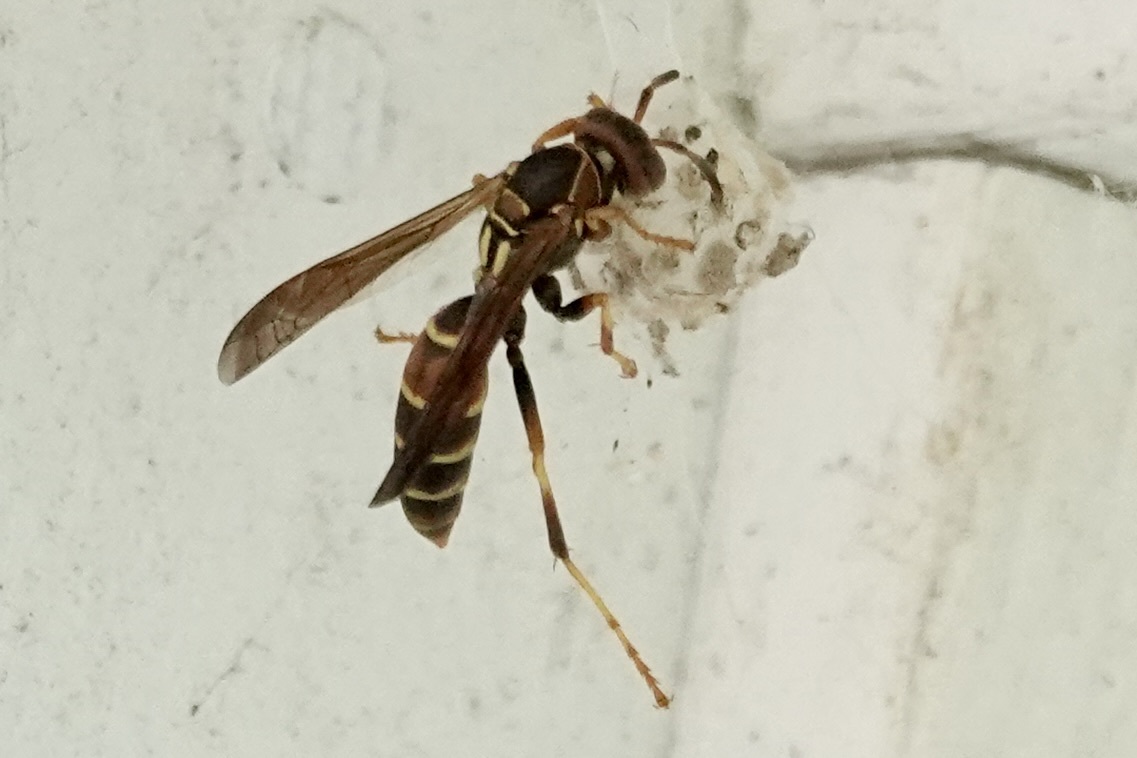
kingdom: Animalia
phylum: Arthropoda
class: Insecta
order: Hymenoptera
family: Eumenidae
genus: Polistes
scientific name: Polistes dorsalis
